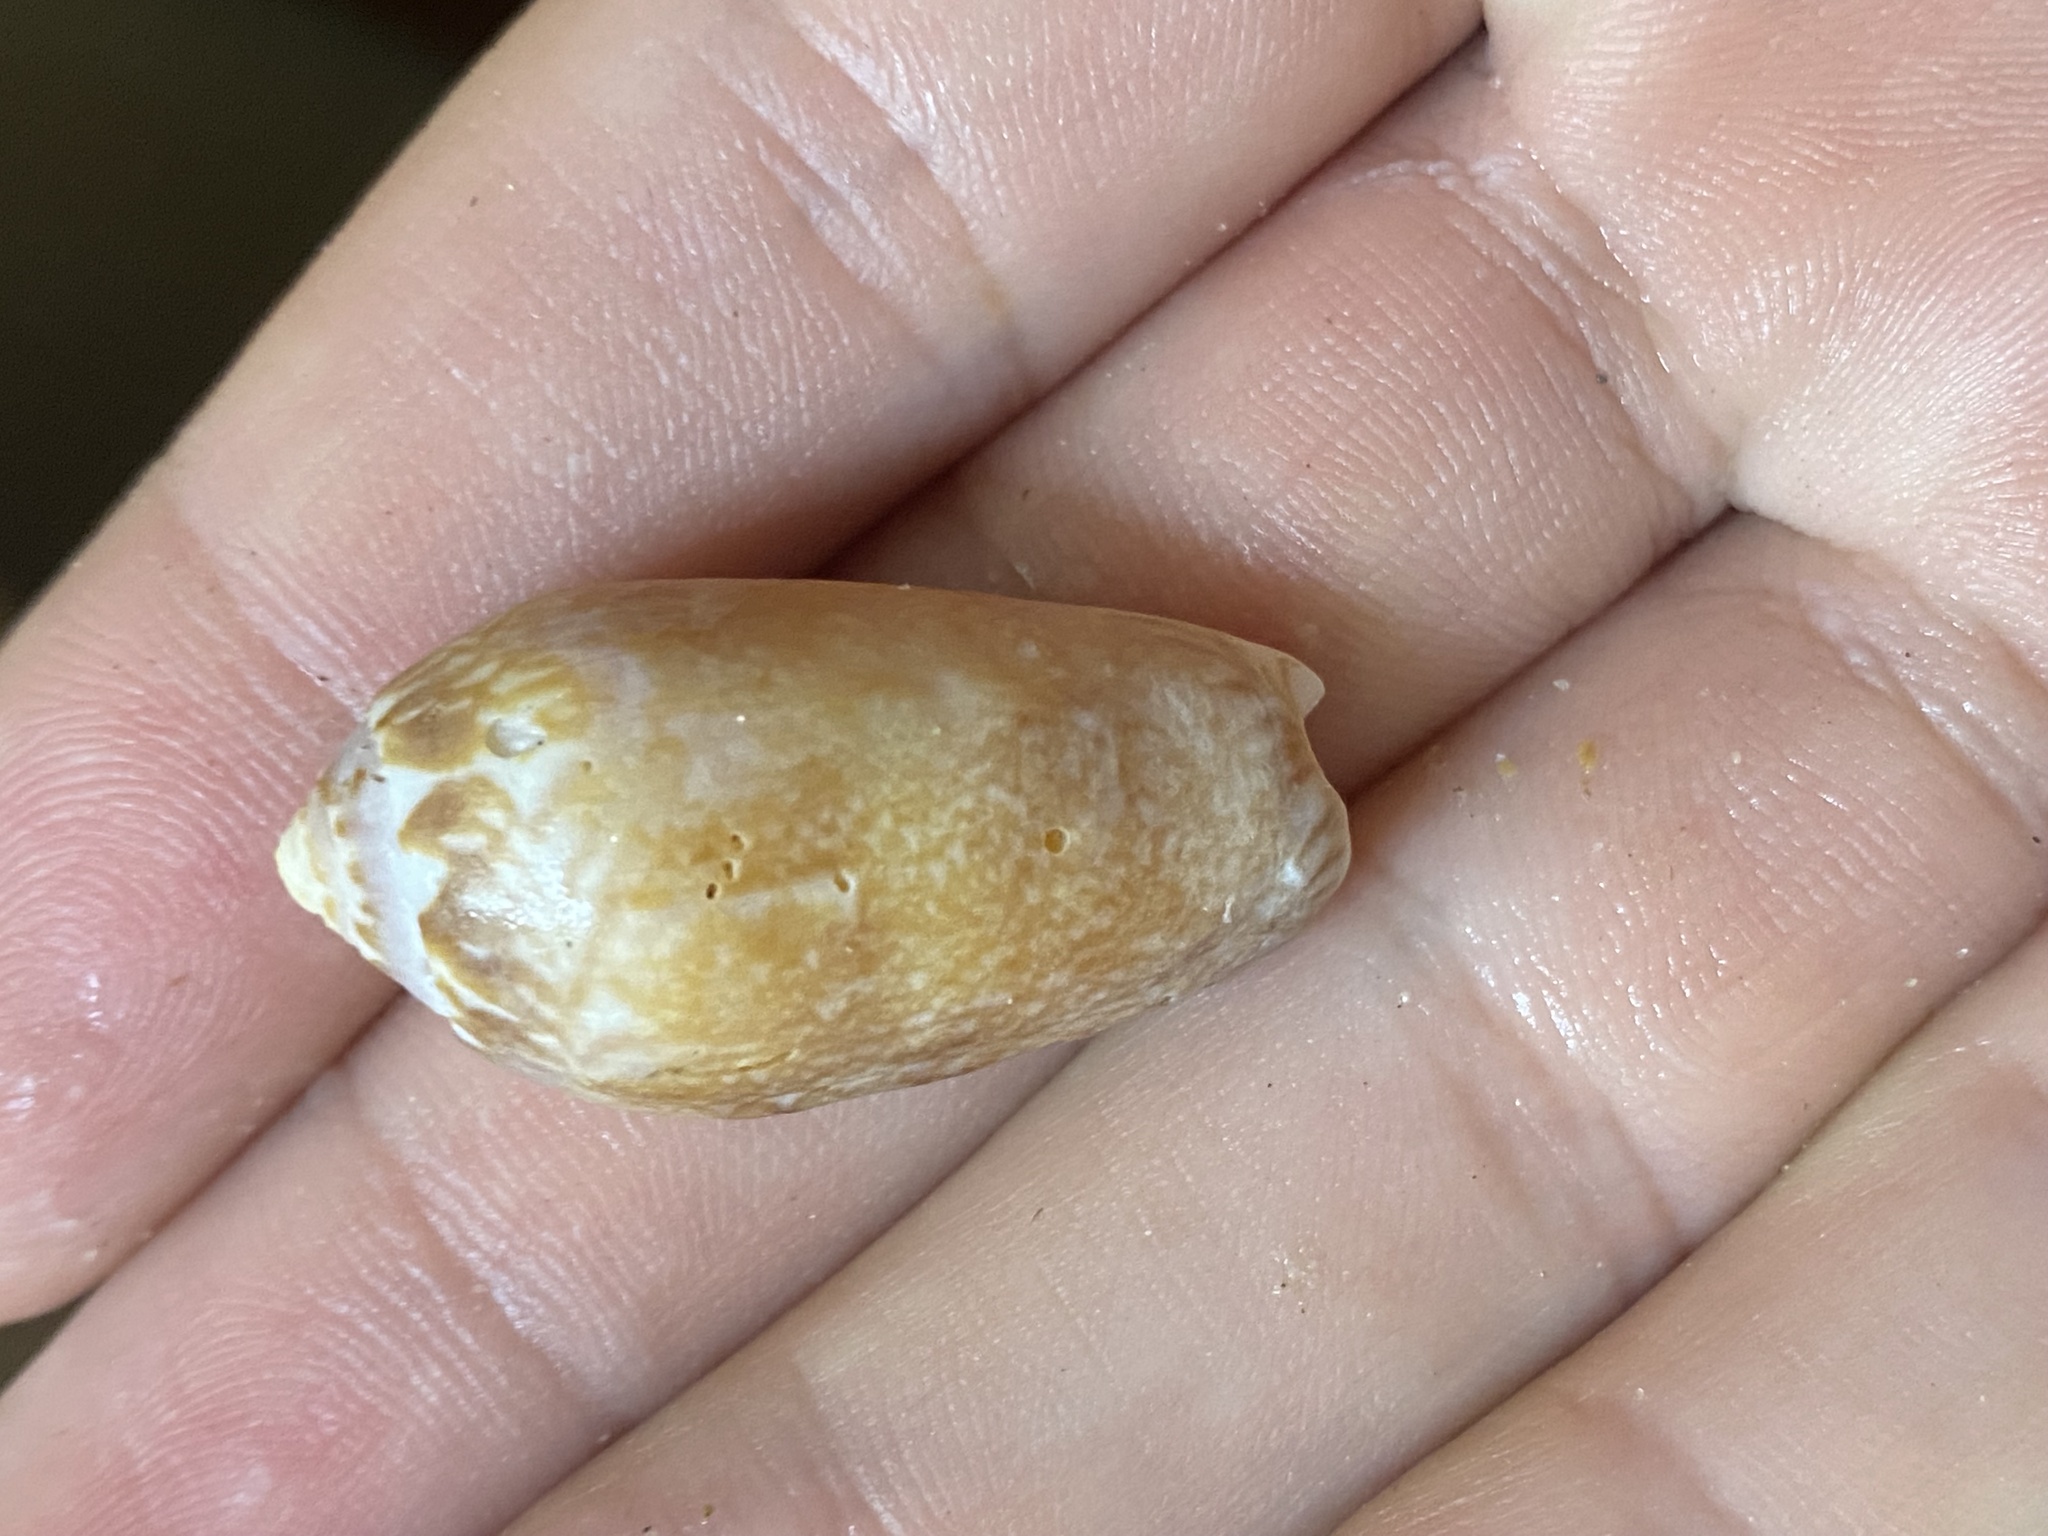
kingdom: Animalia
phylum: Mollusca
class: Gastropoda
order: Neogastropoda
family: Olividae
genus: Oliva
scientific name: Oliva spicata
